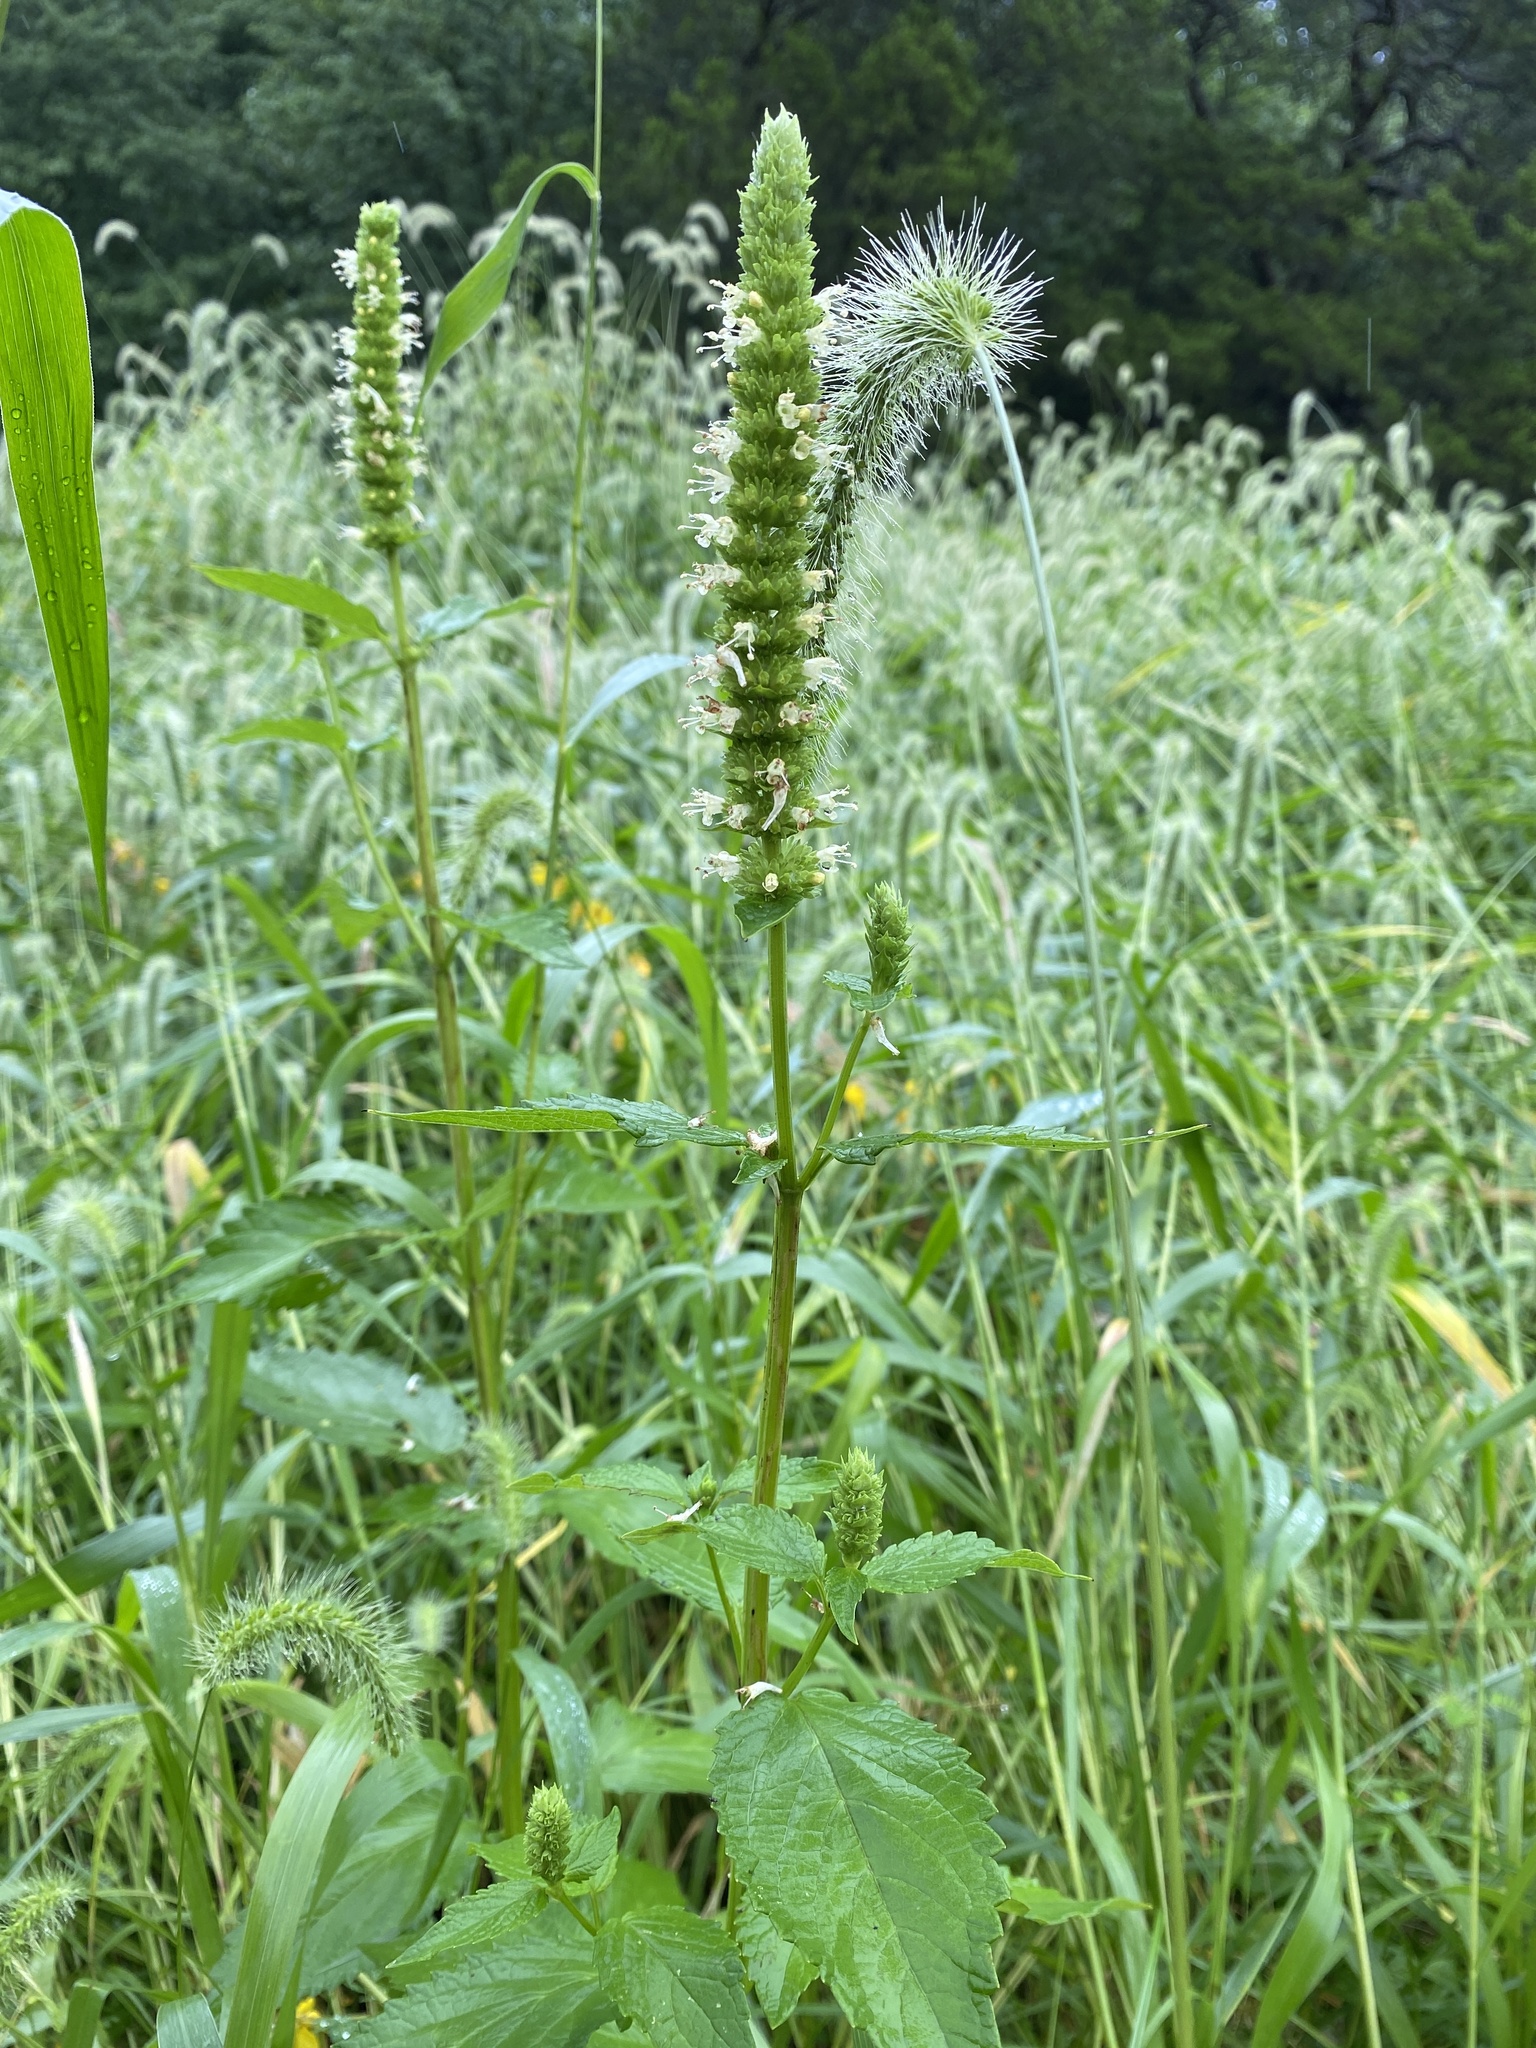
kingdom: Plantae
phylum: Tracheophyta
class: Magnoliopsida
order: Lamiales
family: Lamiaceae
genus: Agastache
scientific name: Agastache nepetoides
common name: Catnip giant hyssop
